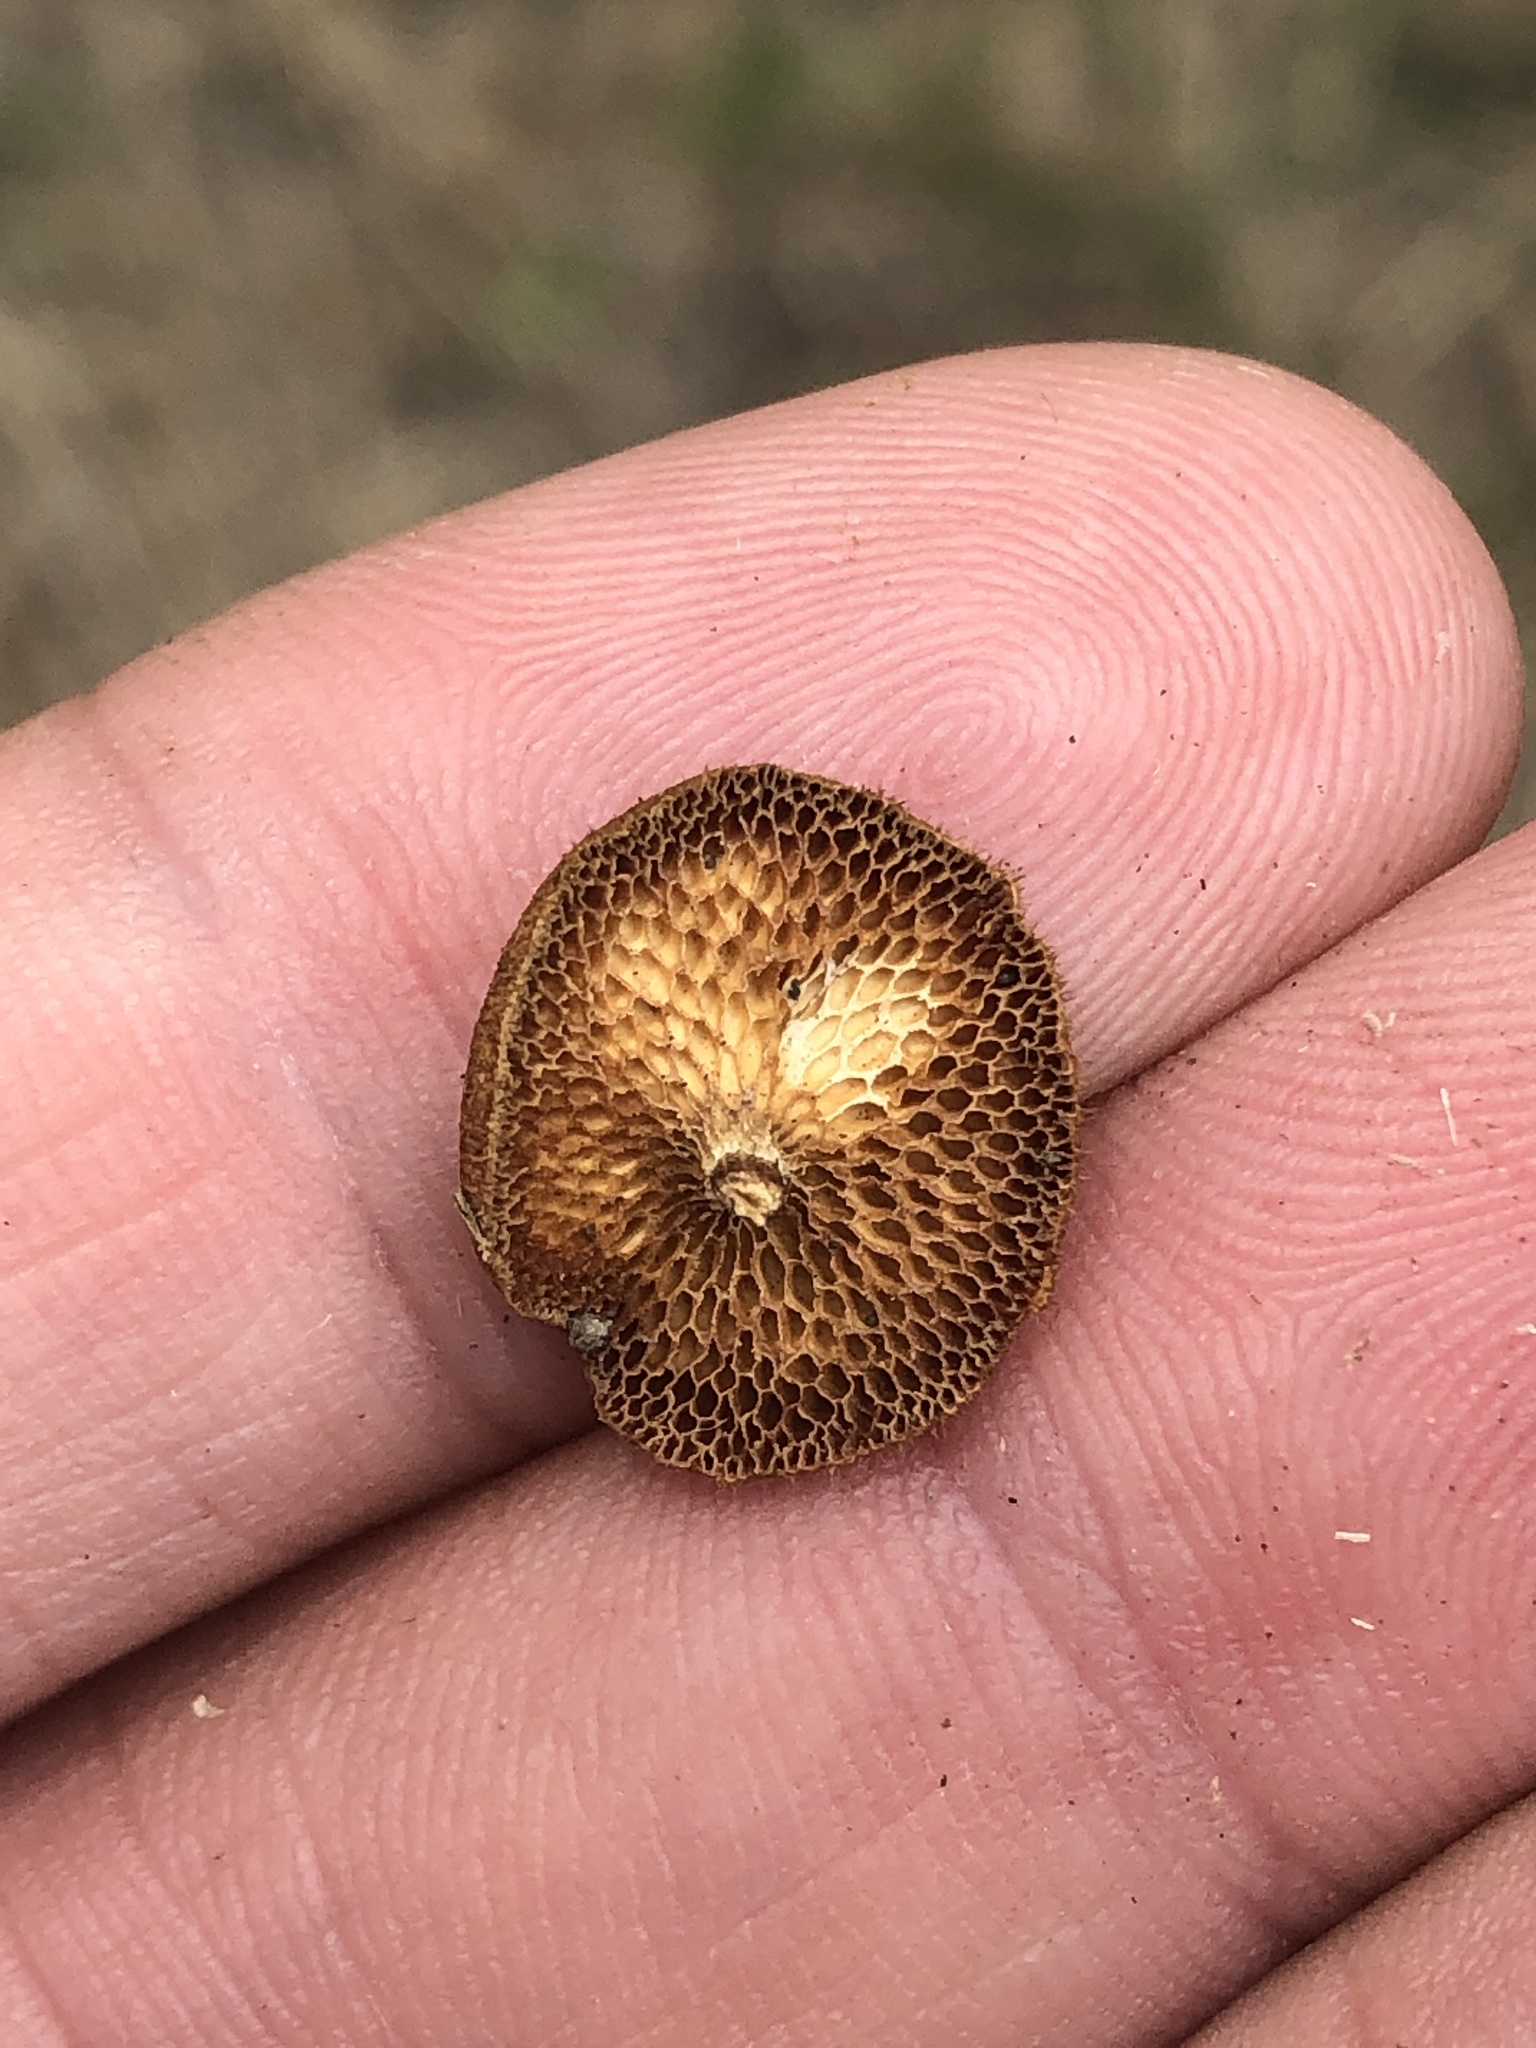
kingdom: Fungi
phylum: Basidiomycota
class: Agaricomycetes
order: Polyporales
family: Polyporaceae
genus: Lentinus
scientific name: Lentinus arcularius
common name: Spring polypore
